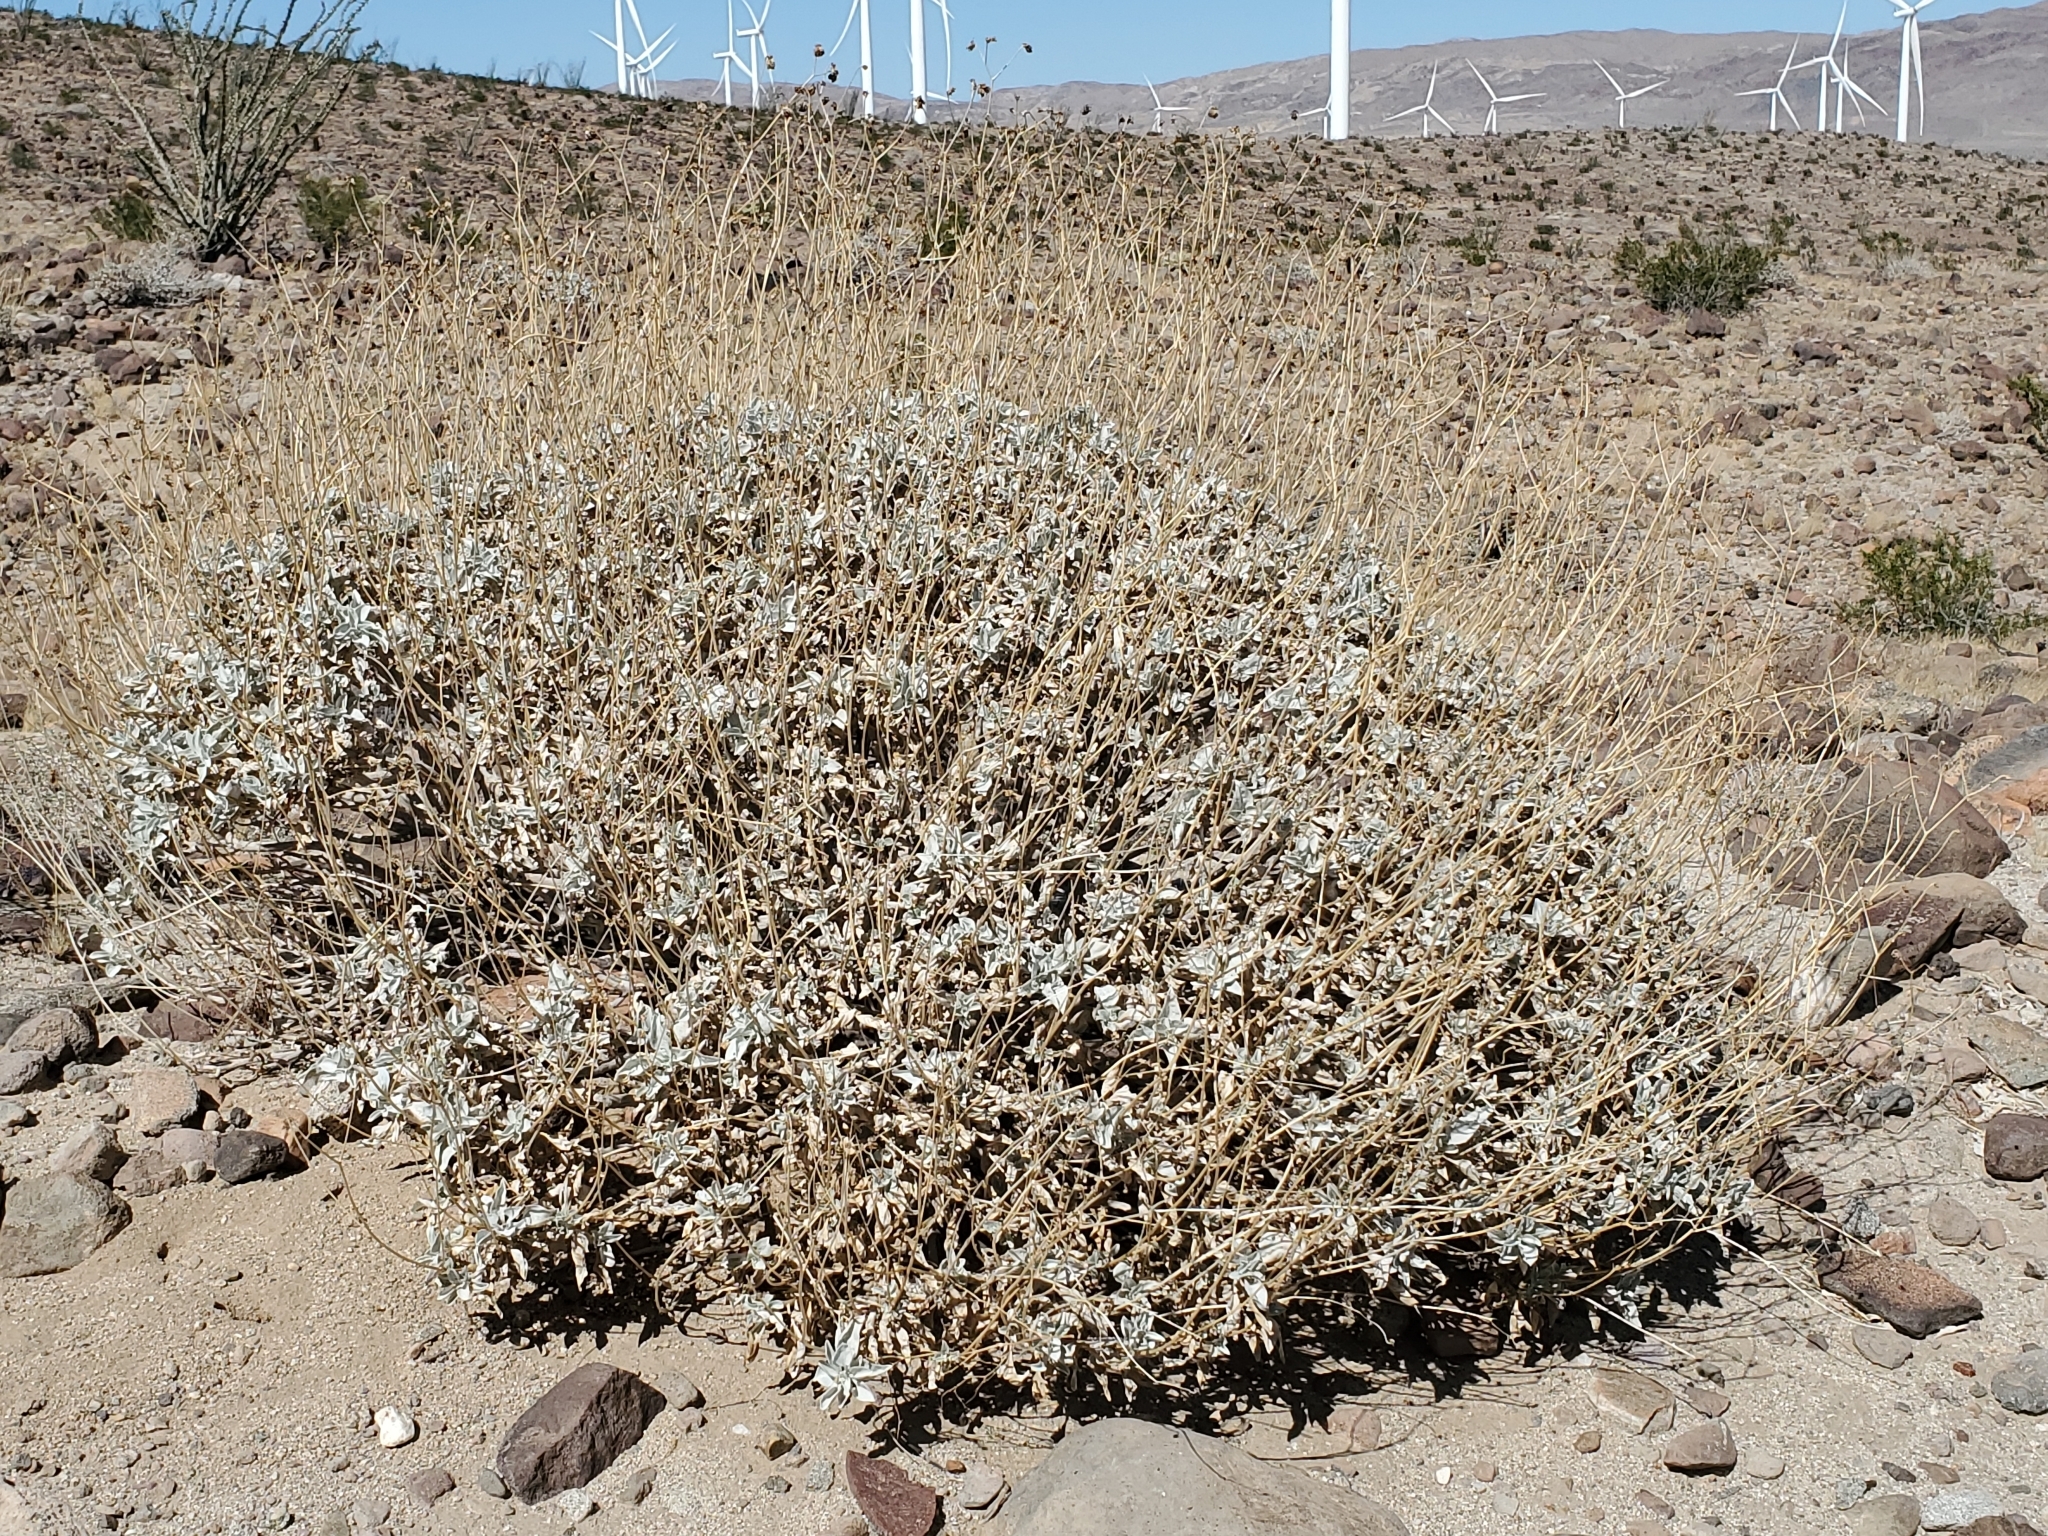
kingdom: Plantae
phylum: Tracheophyta
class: Magnoliopsida
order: Asterales
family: Asteraceae
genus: Encelia
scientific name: Encelia farinosa
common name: Brittlebush
